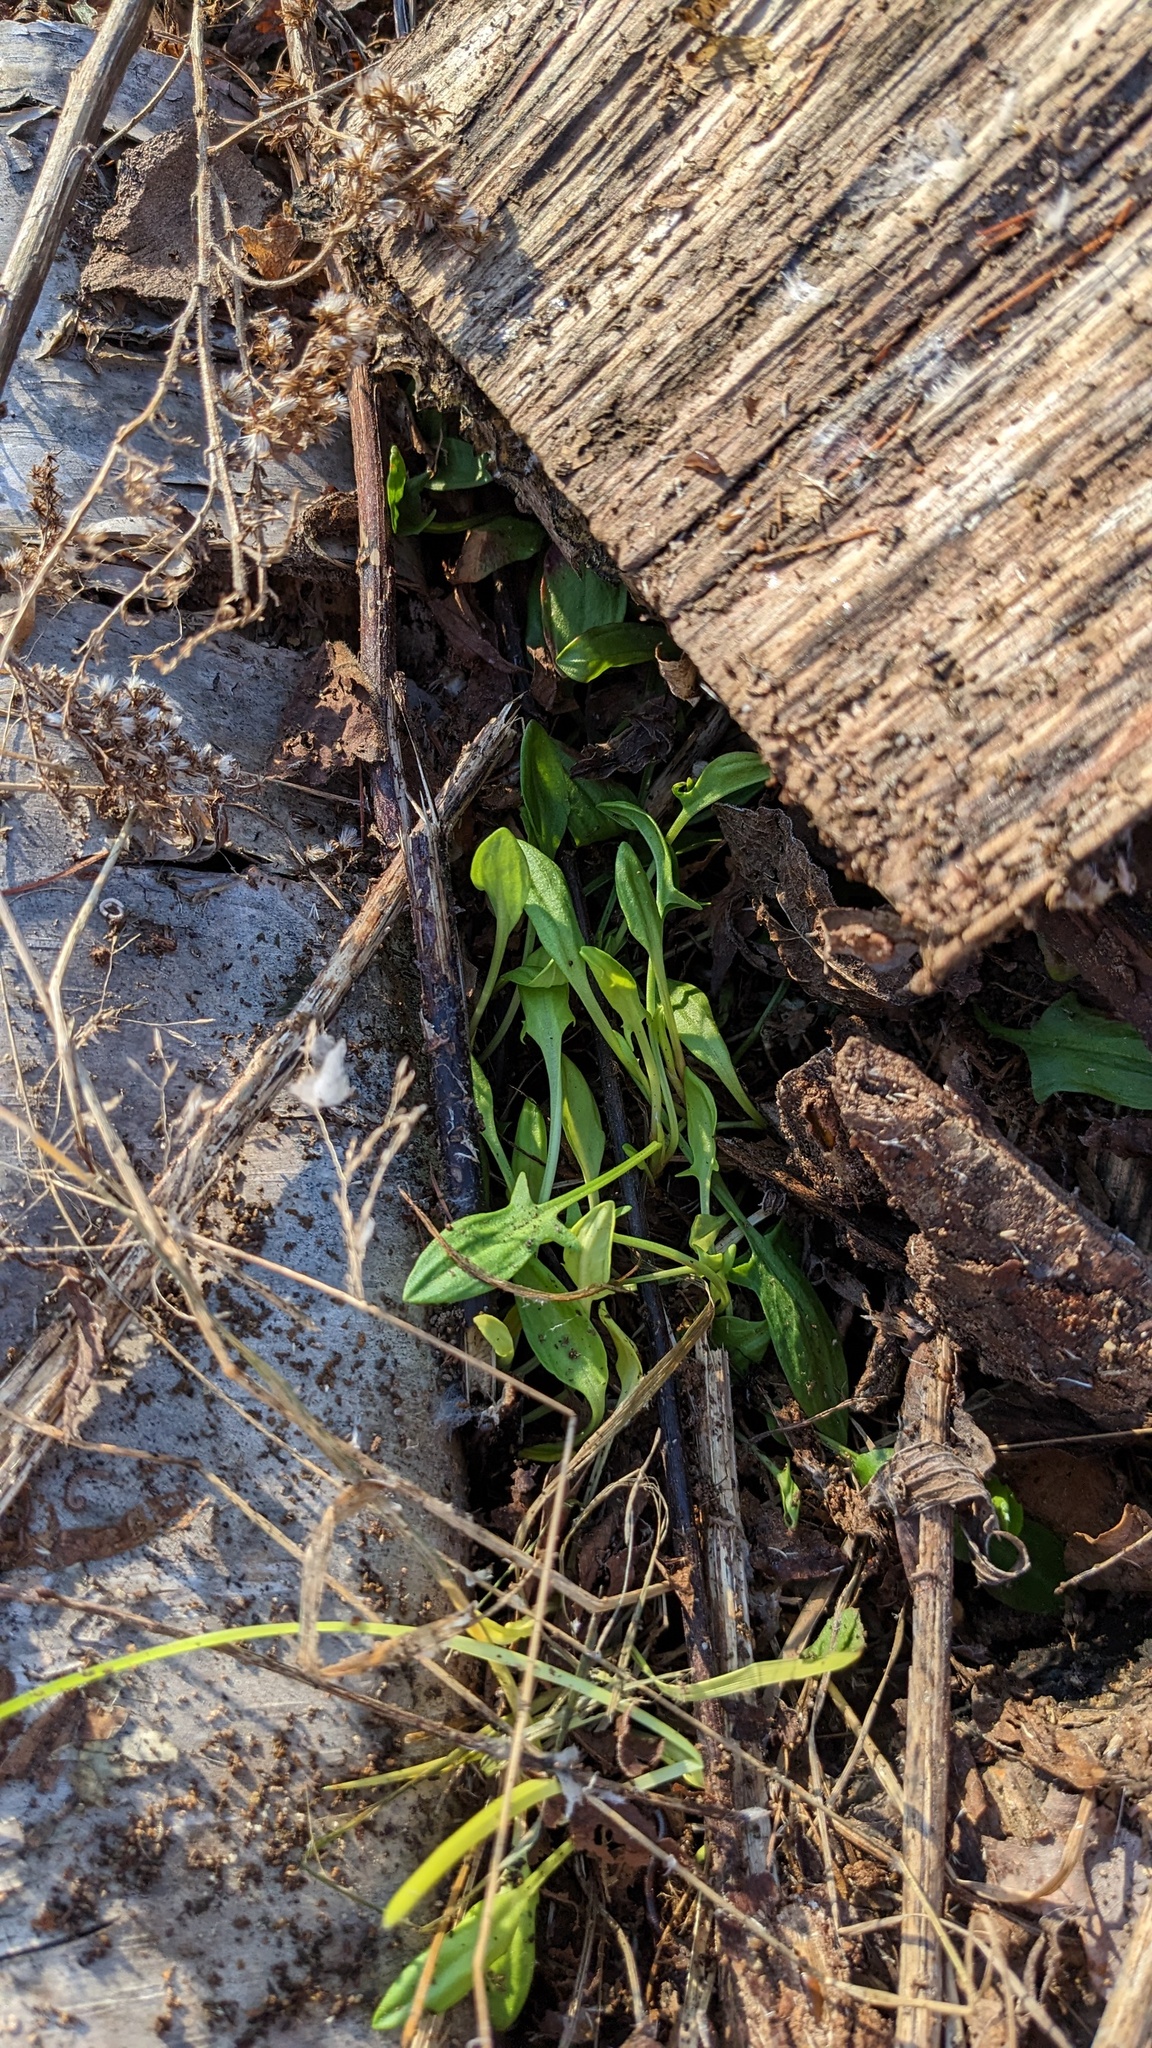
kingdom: Plantae
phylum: Tracheophyta
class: Magnoliopsida
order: Caryophyllales
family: Polygonaceae
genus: Rumex
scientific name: Rumex acetosella
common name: Common sheep sorrel
